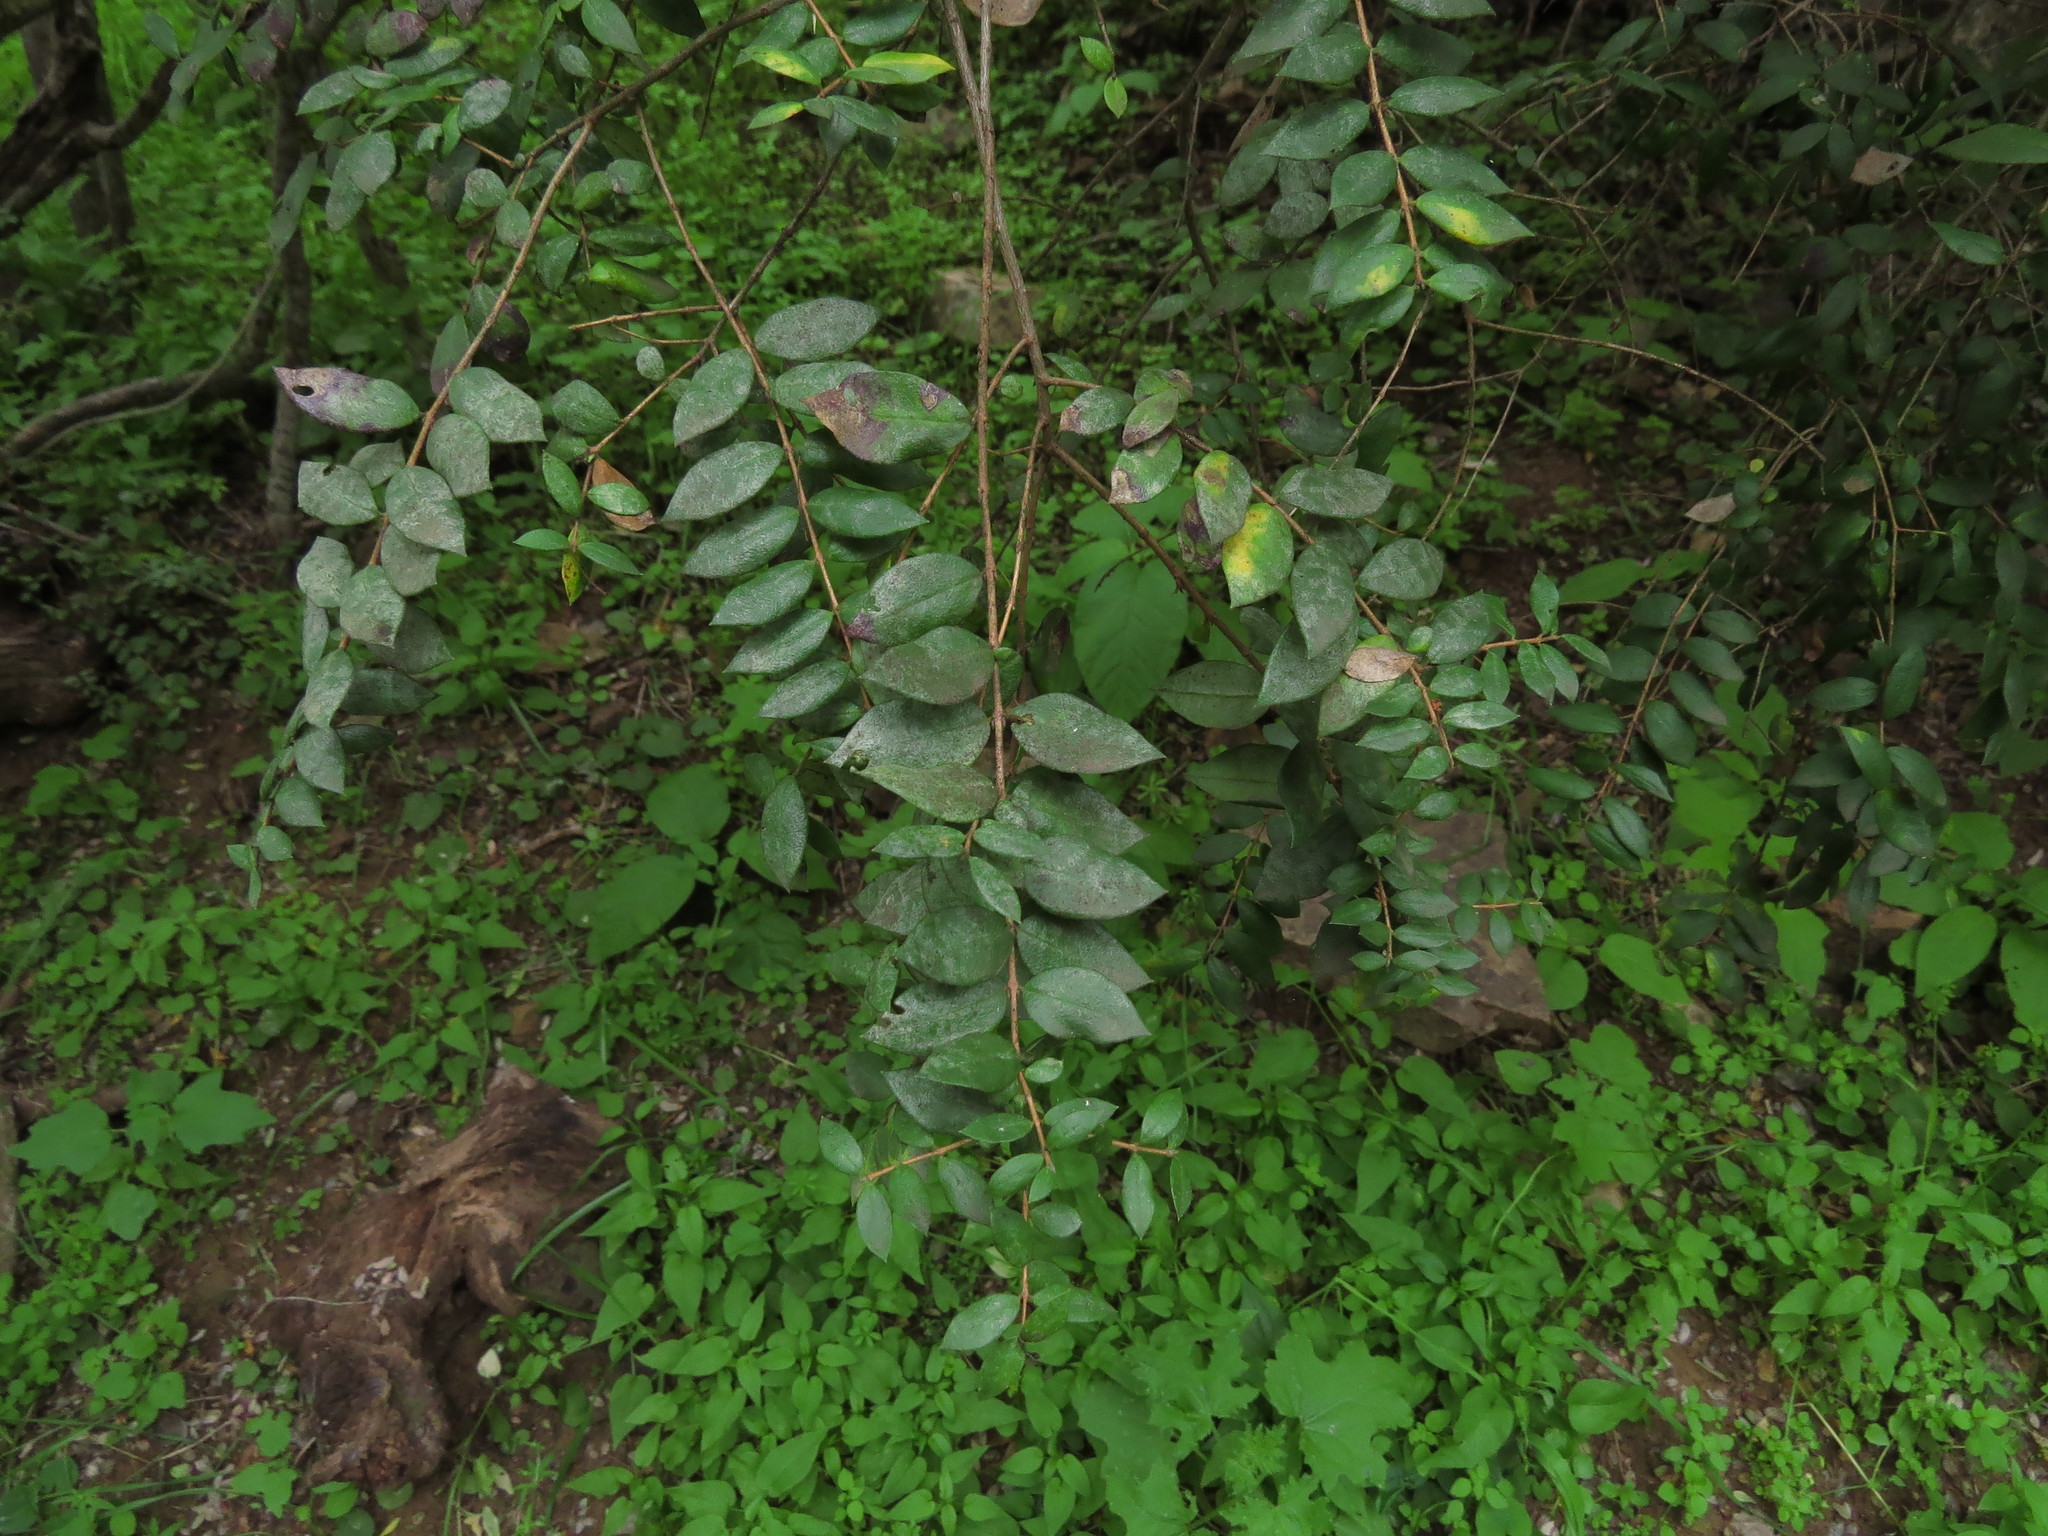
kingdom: Plantae
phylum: Tracheophyta
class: Magnoliopsida
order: Myrtales
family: Myrtaceae
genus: Luma
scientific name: Luma chequen
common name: Cheken
